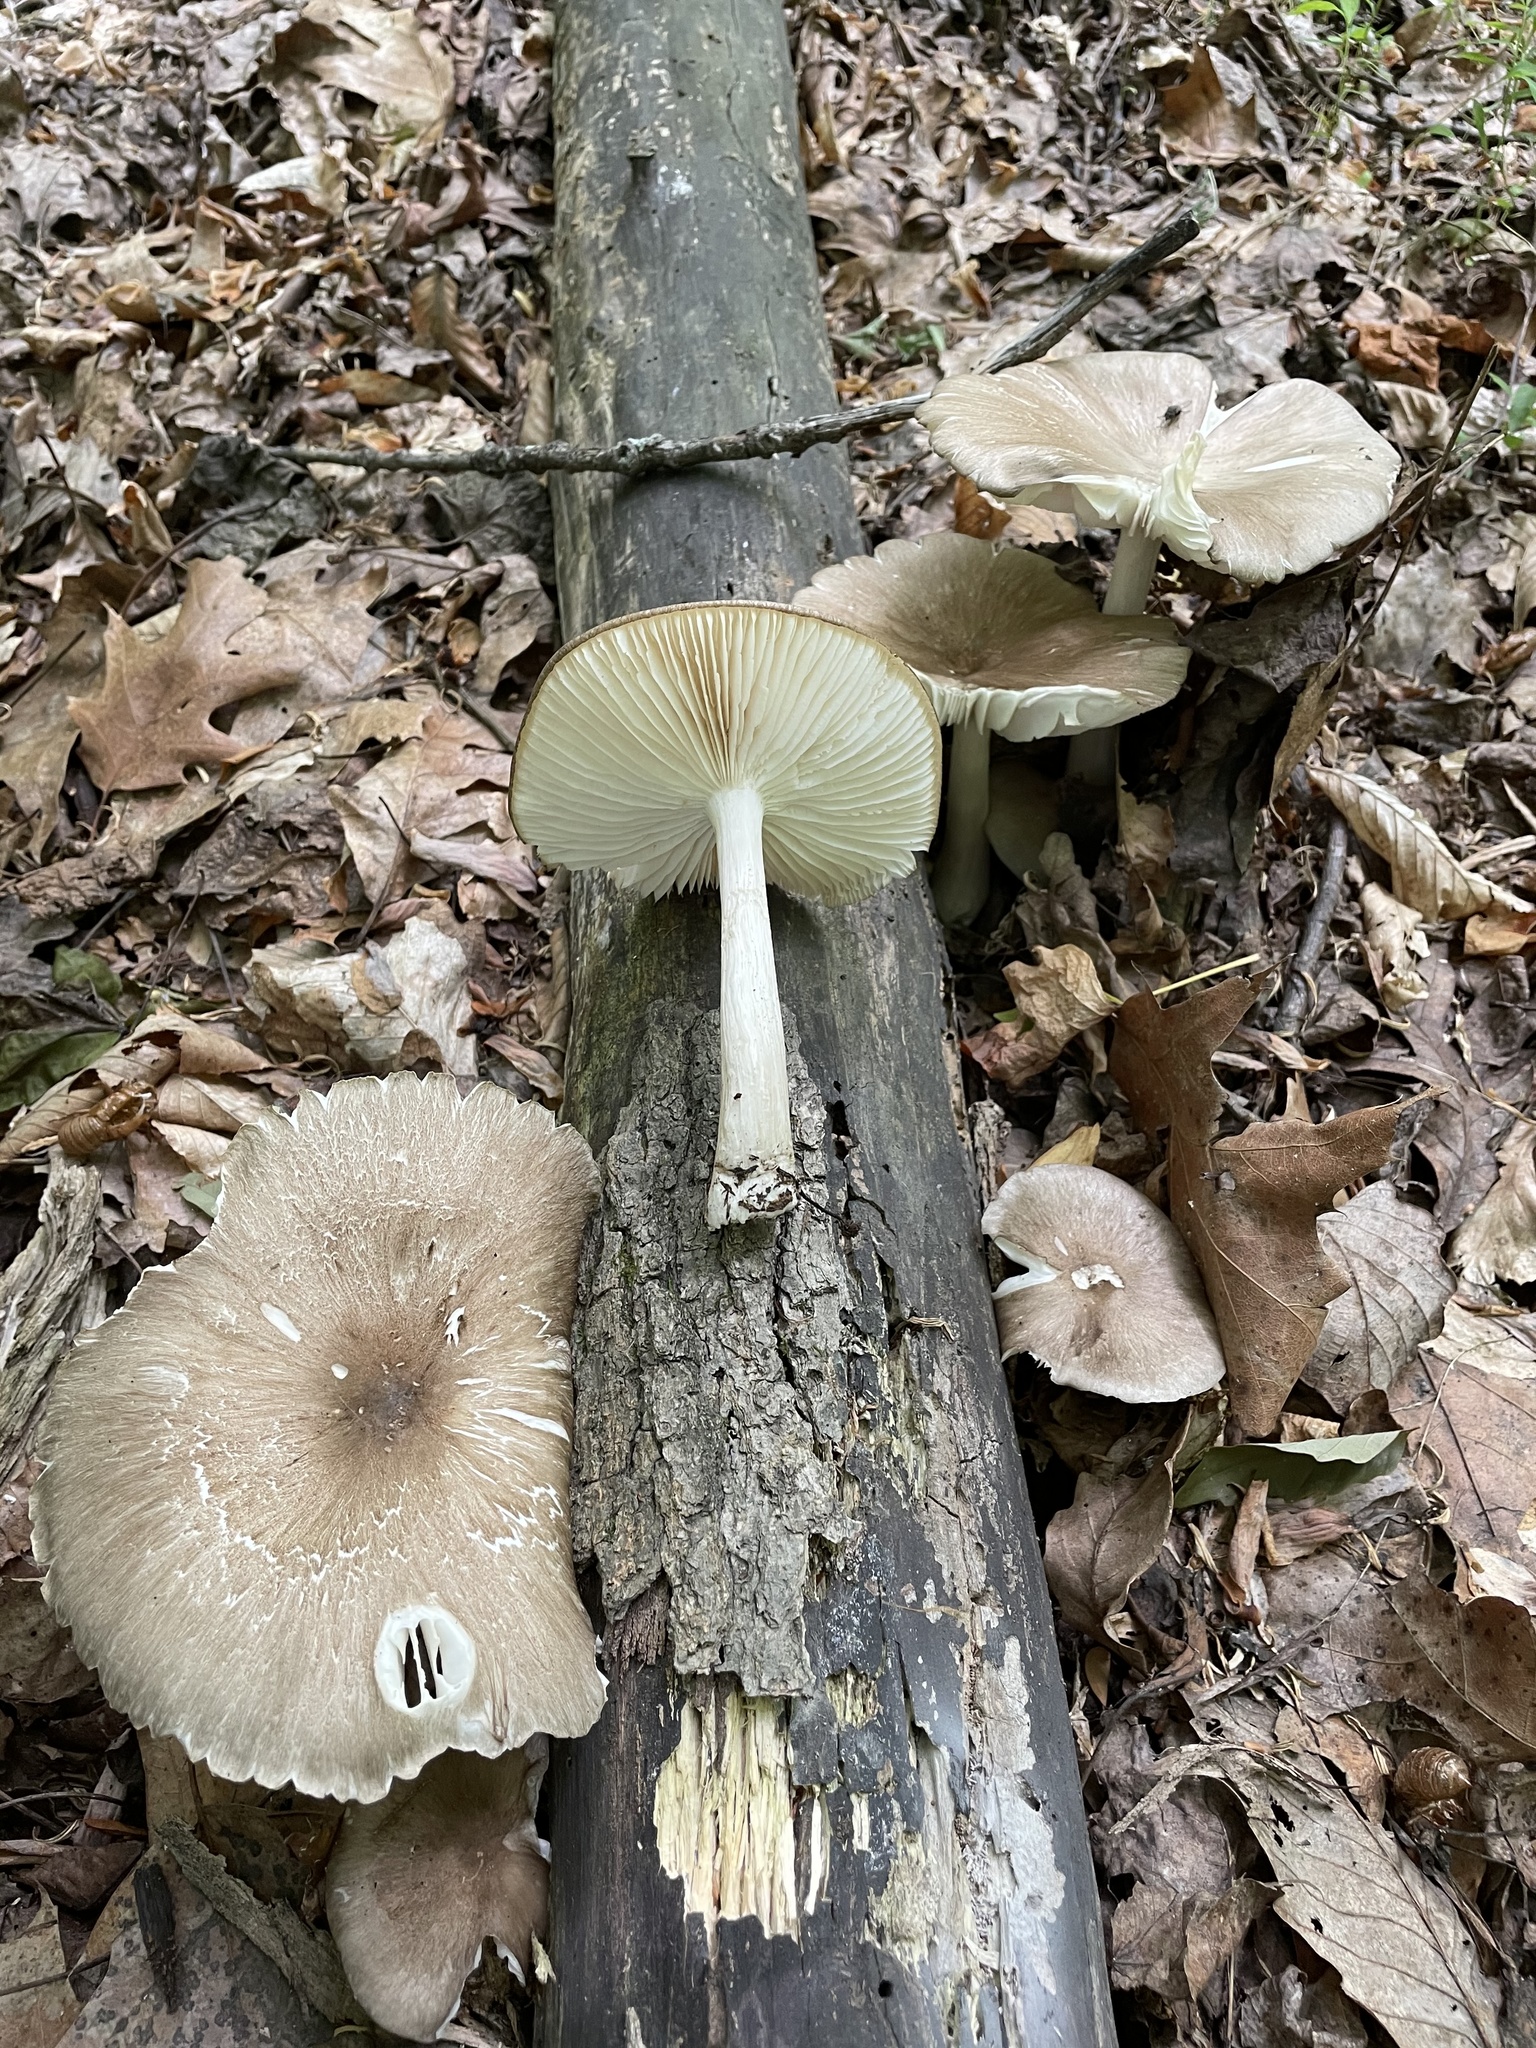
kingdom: Fungi
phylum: Basidiomycota
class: Agaricomycetes
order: Agaricales
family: Tricholomataceae
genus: Megacollybia
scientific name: Megacollybia rodmanii
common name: Eastern american platterful mushroom
